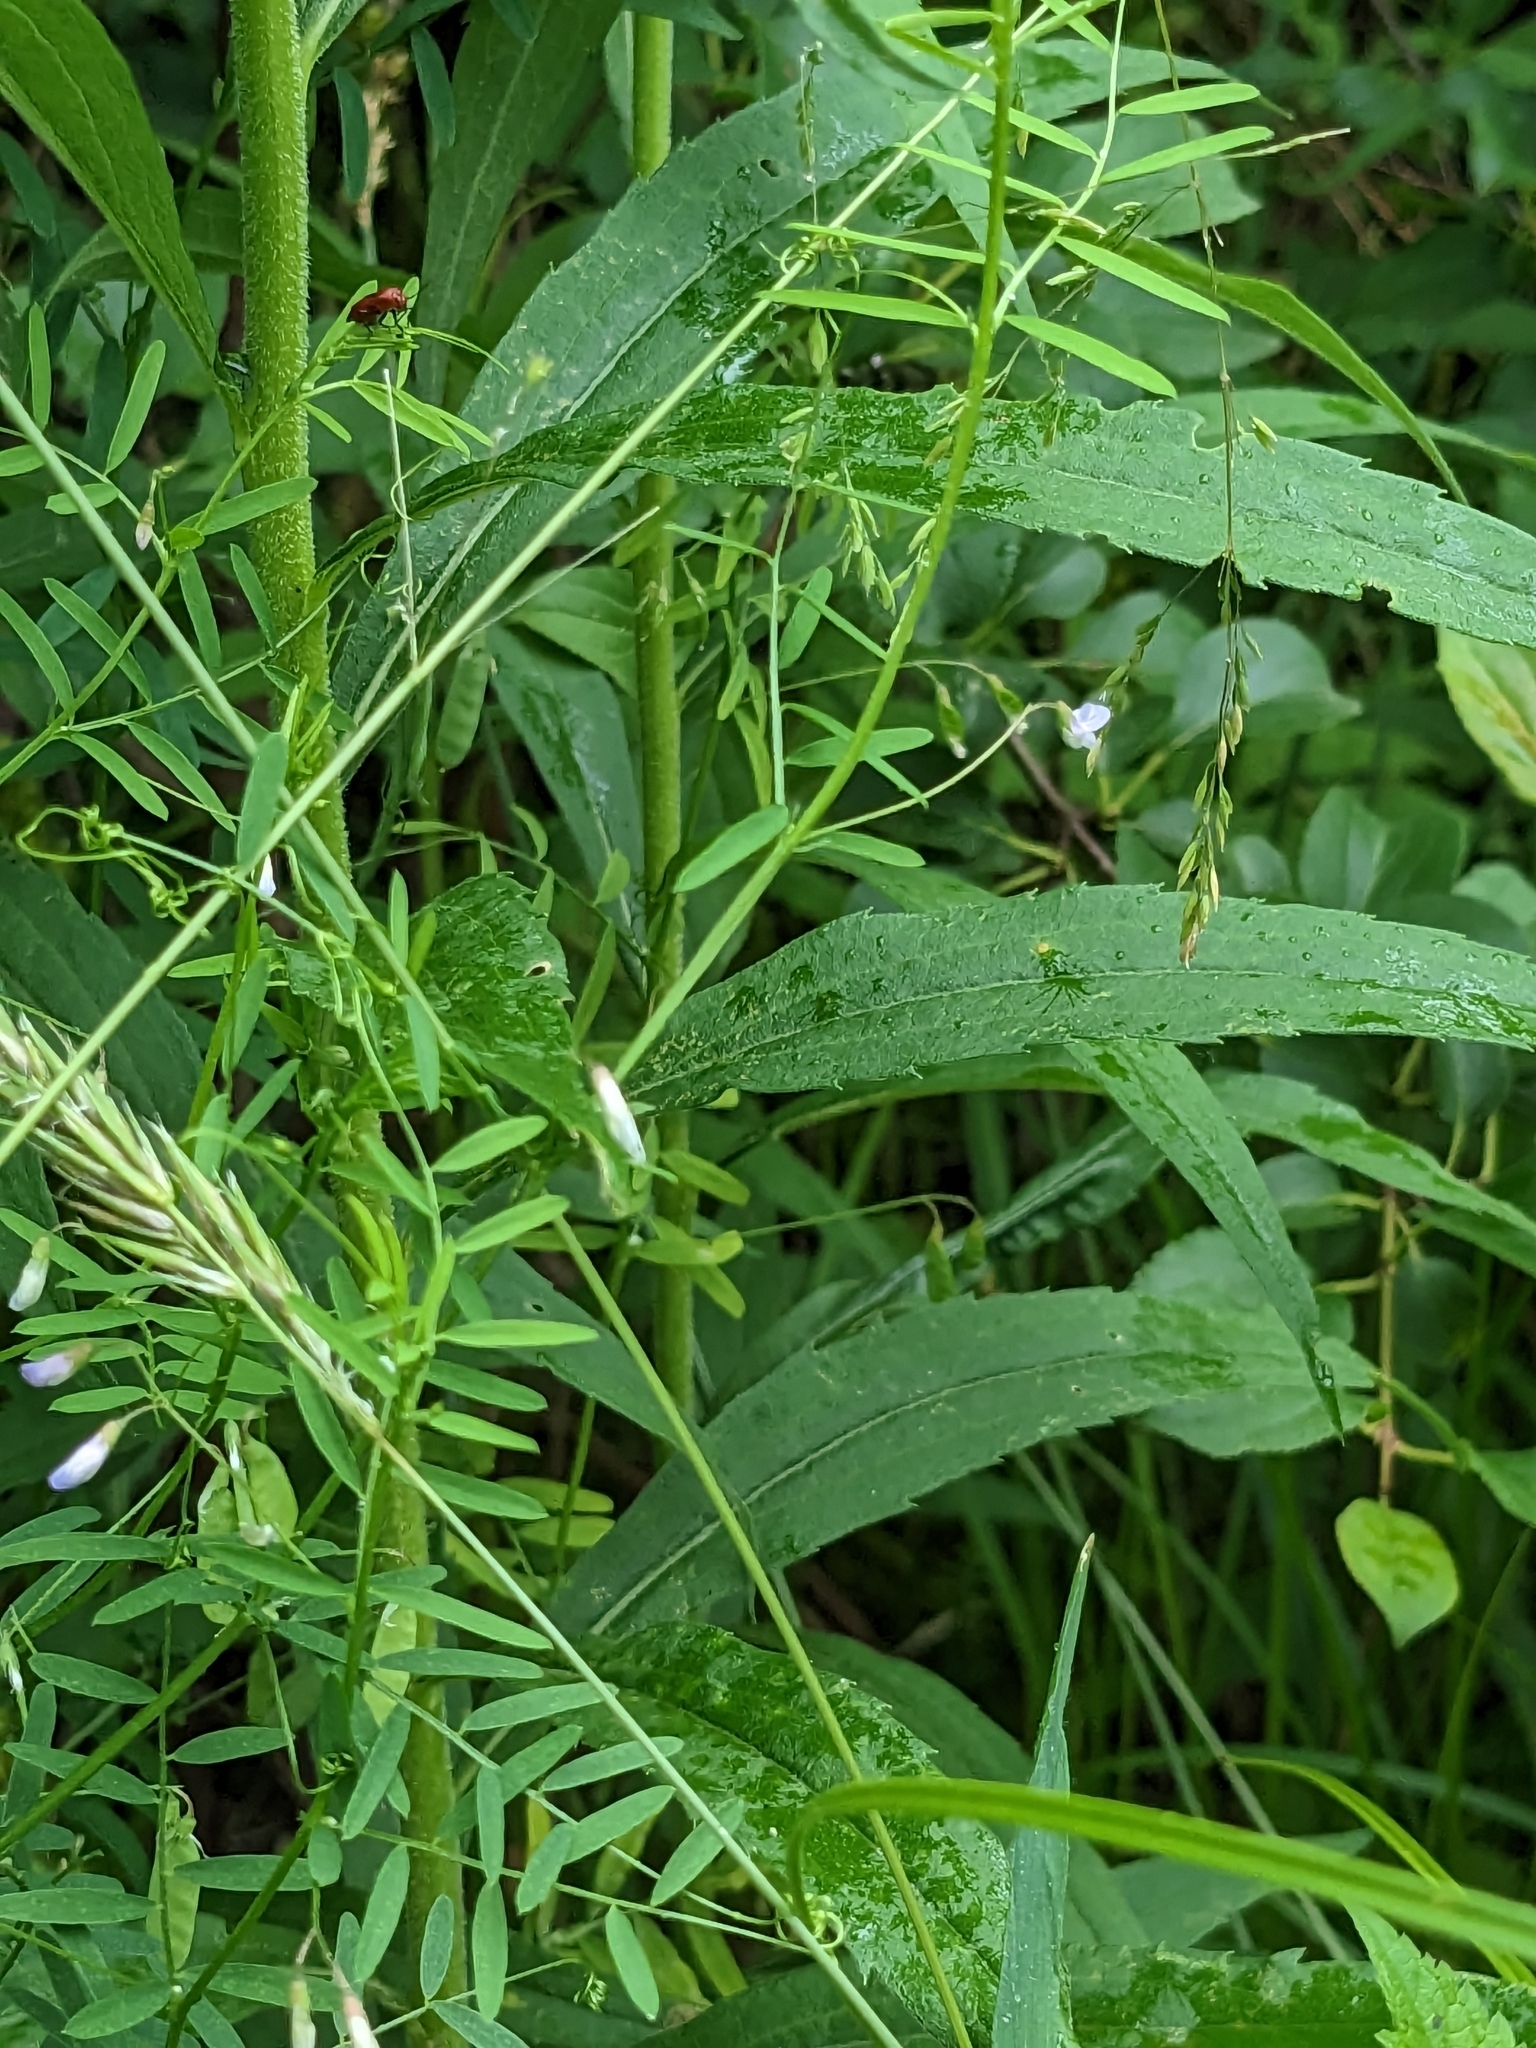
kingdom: Plantae
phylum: Tracheophyta
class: Magnoliopsida
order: Fabales
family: Fabaceae
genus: Vicia
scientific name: Vicia tetrasperma
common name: Smooth tare
